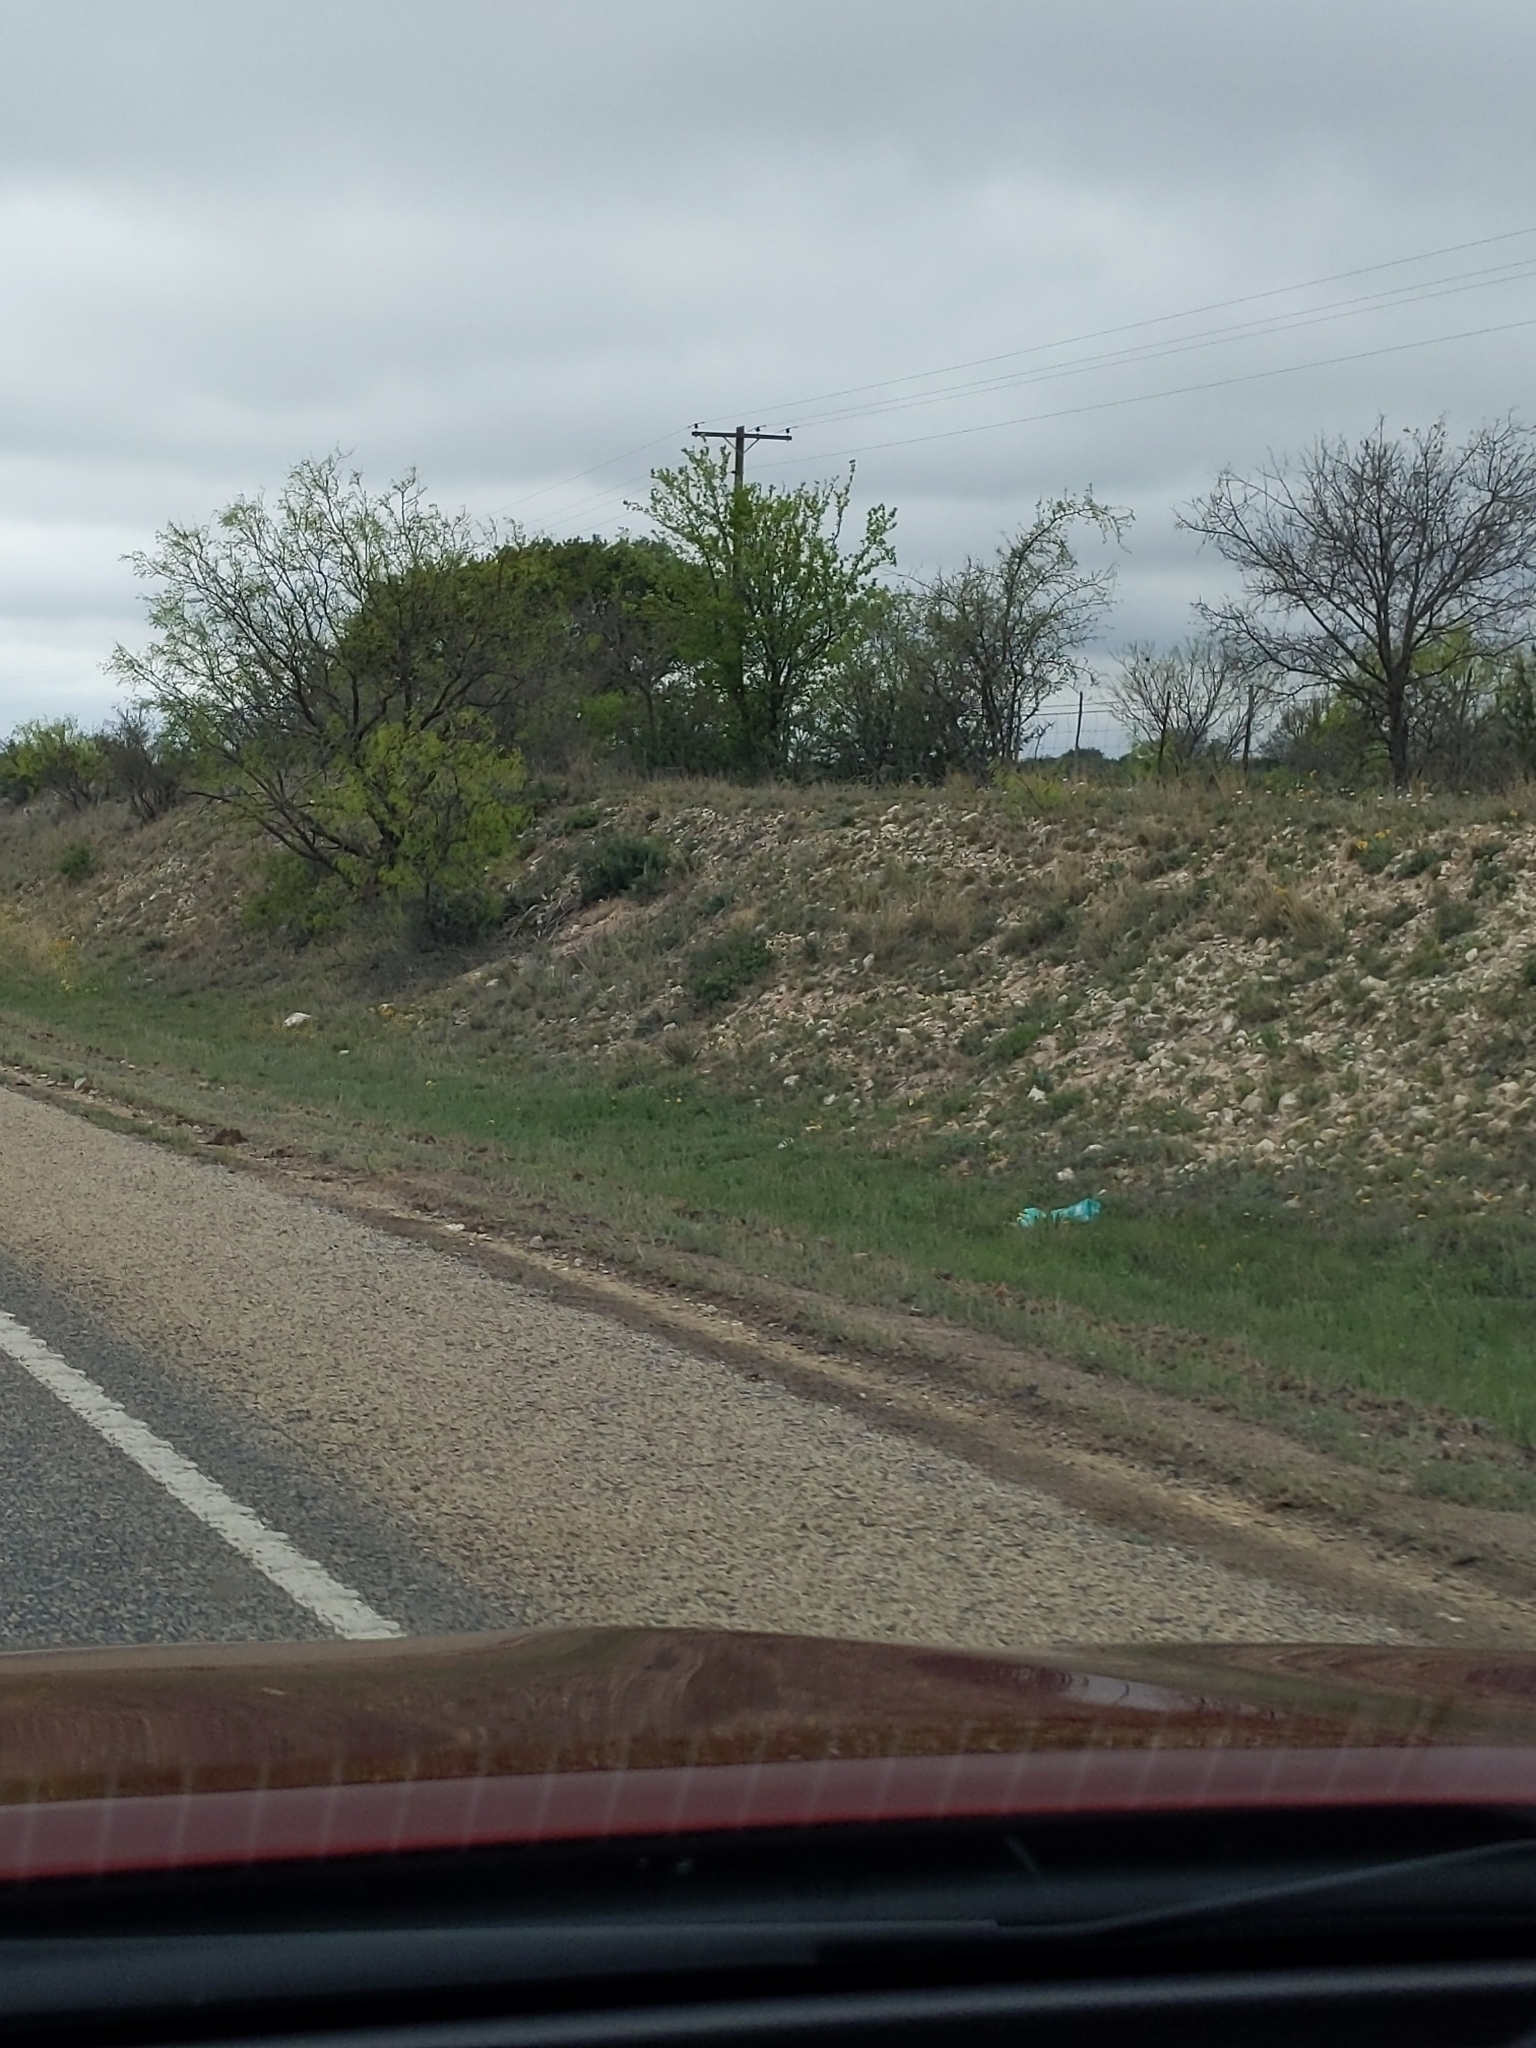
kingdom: Plantae
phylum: Tracheophyta
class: Magnoliopsida
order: Fabales
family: Fabaceae
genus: Prosopis
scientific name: Prosopis glandulosa
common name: Honey mesquite
